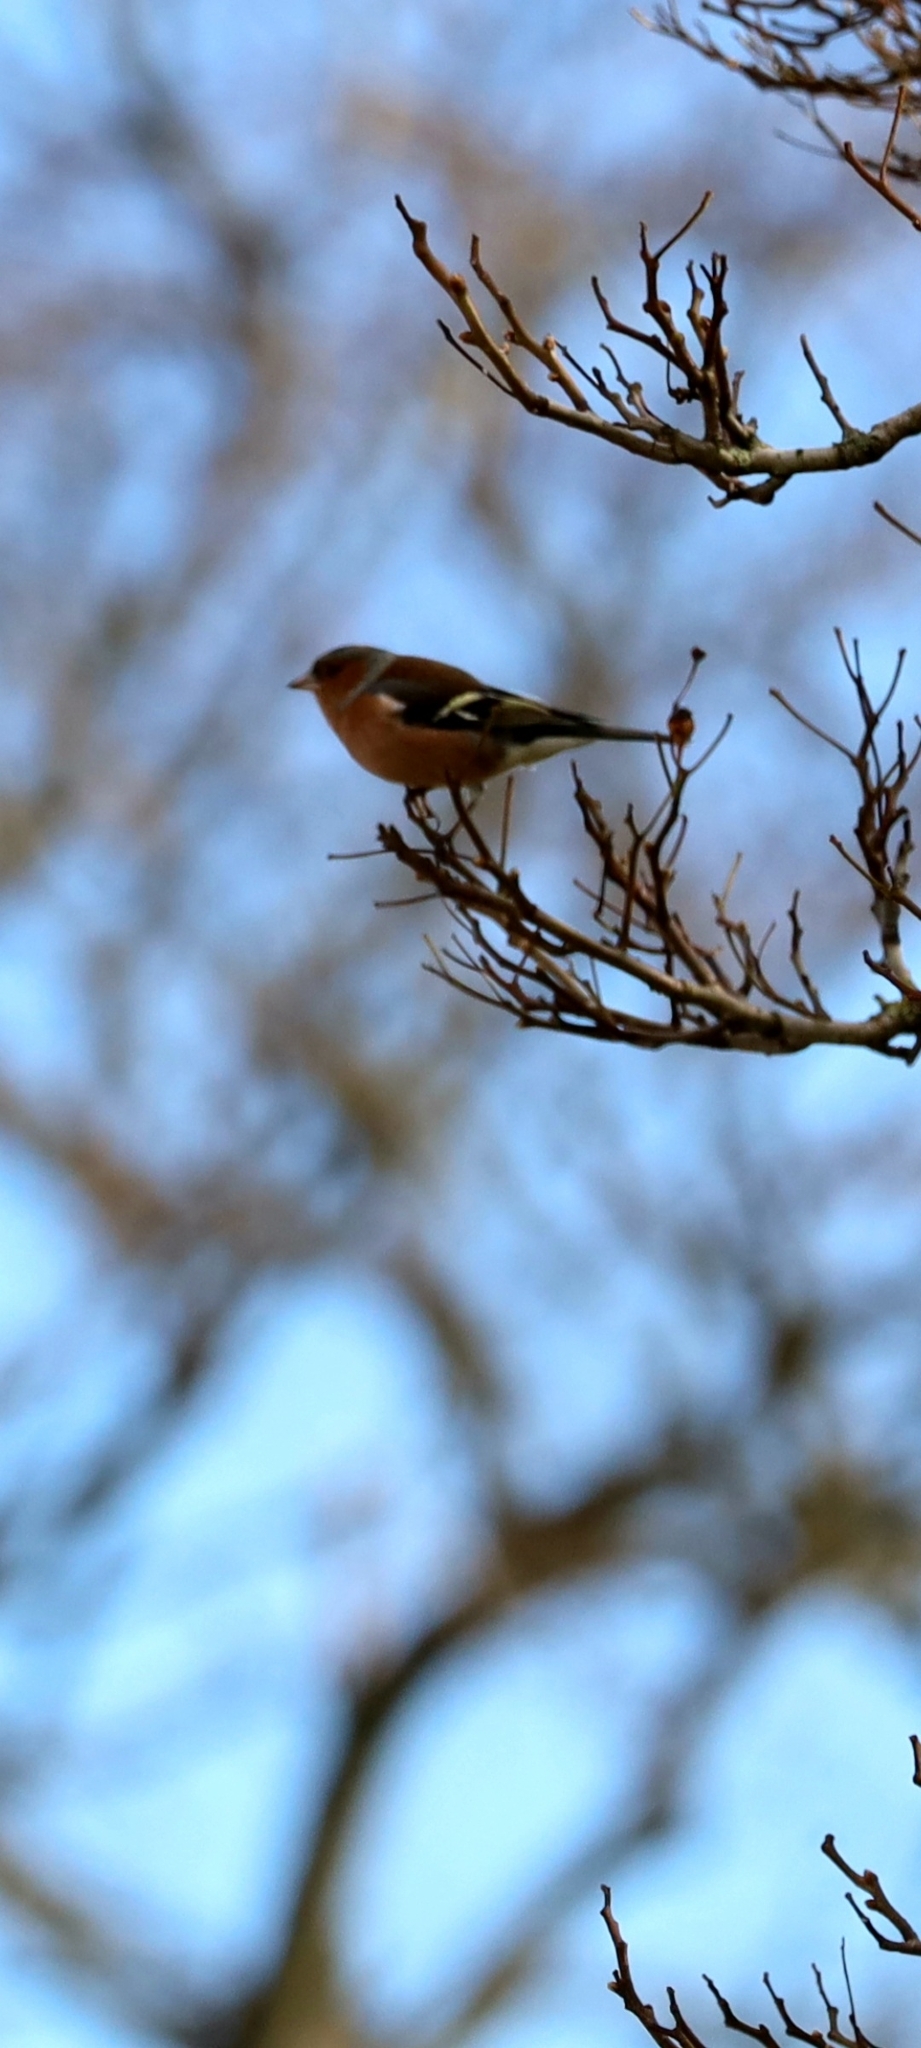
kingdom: Animalia
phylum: Chordata
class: Aves
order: Passeriformes
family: Fringillidae
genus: Fringilla
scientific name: Fringilla coelebs
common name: Common chaffinch
